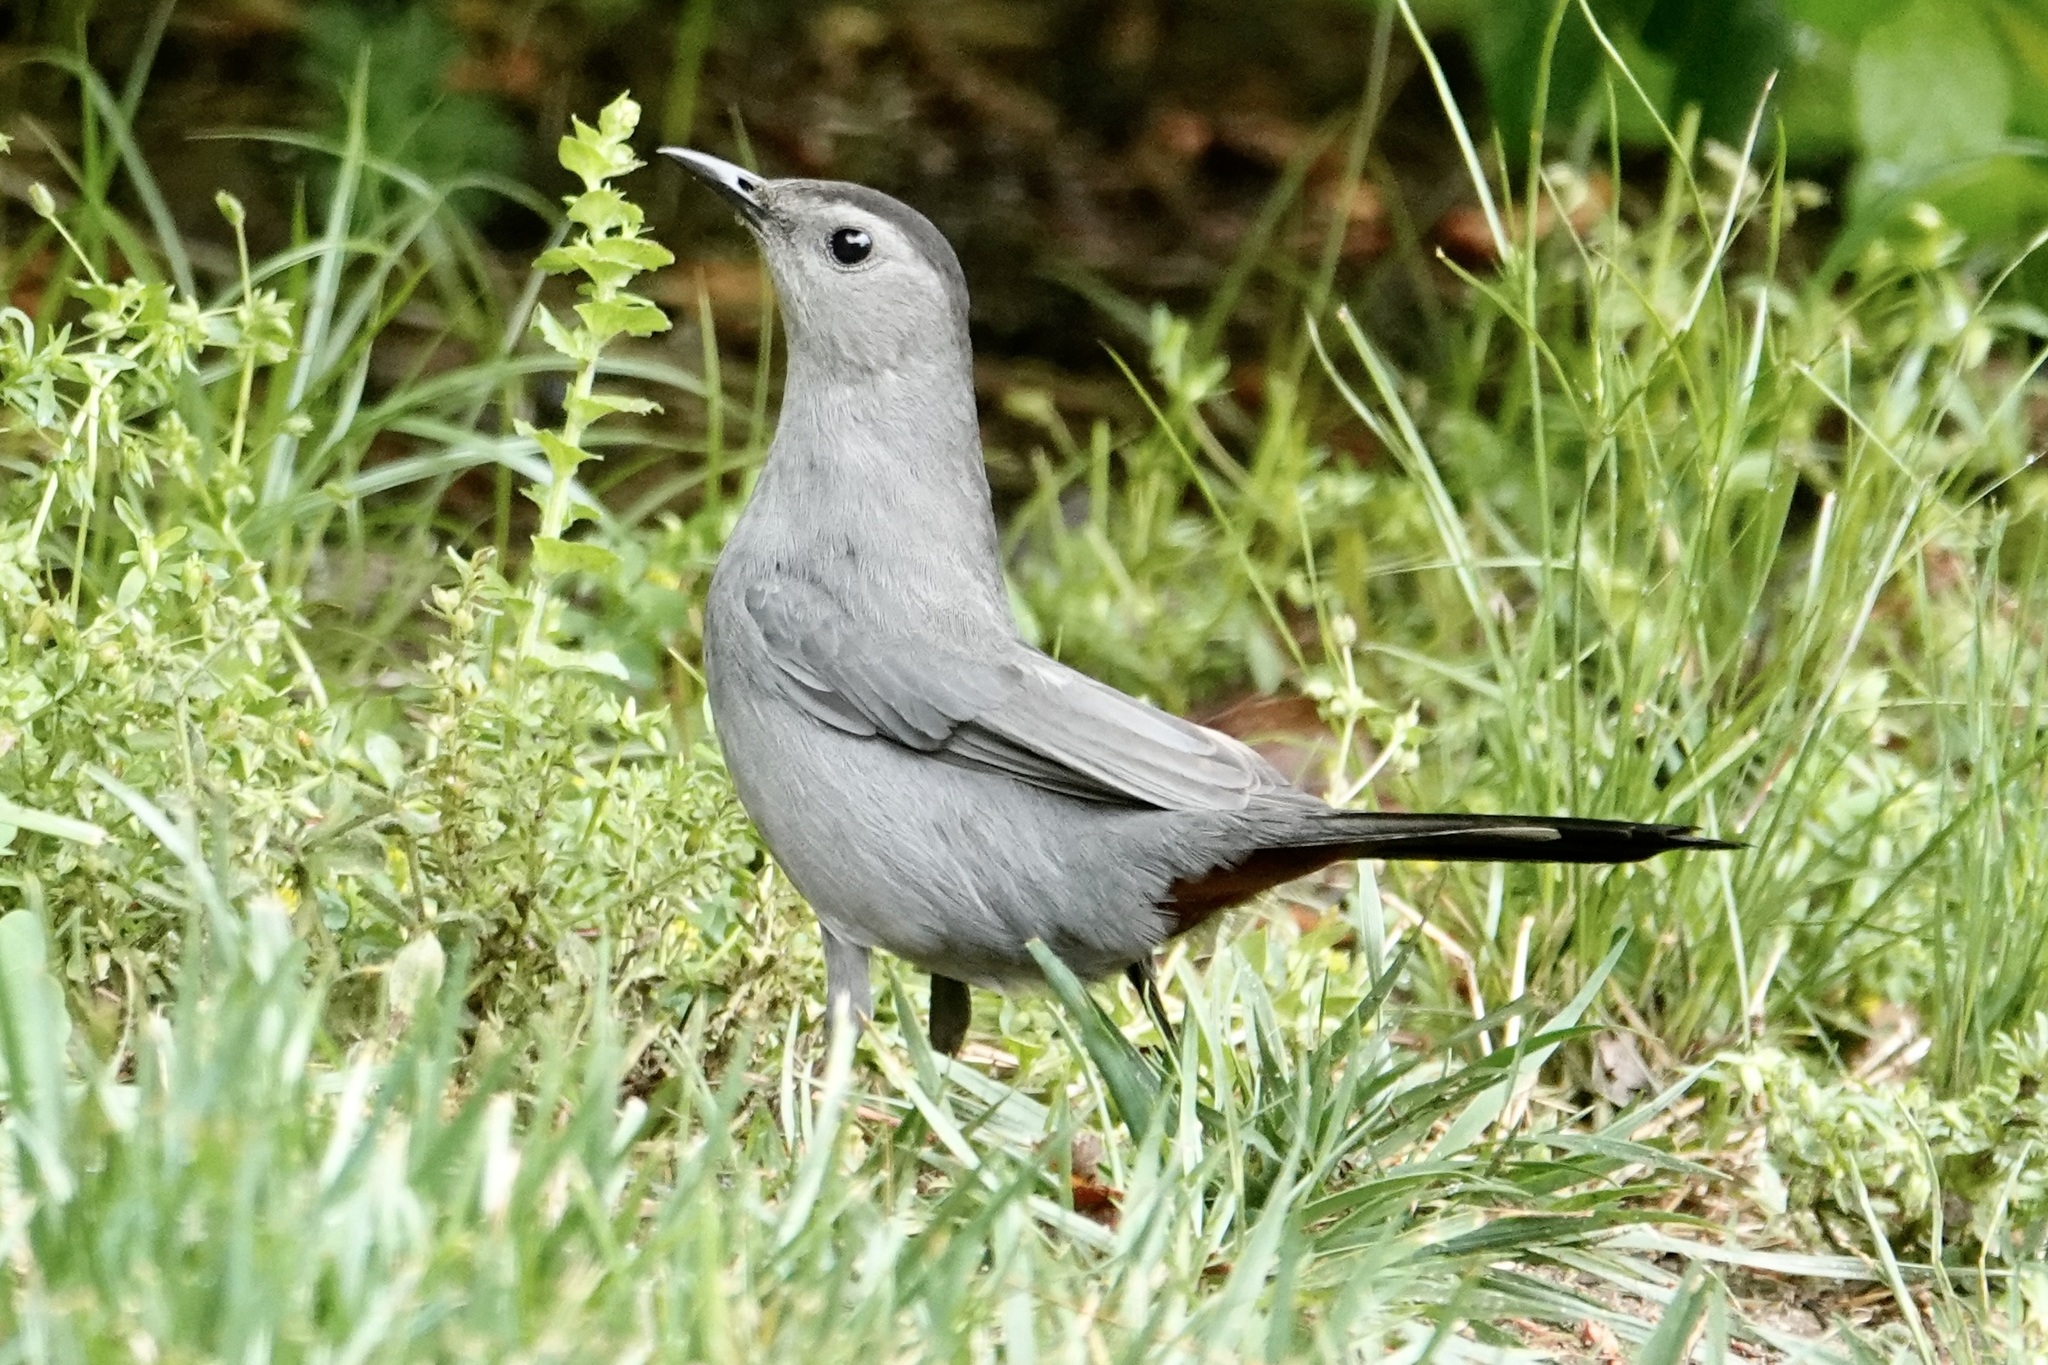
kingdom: Animalia
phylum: Chordata
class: Aves
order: Passeriformes
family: Mimidae
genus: Dumetella
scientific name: Dumetella carolinensis
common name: Gray catbird
